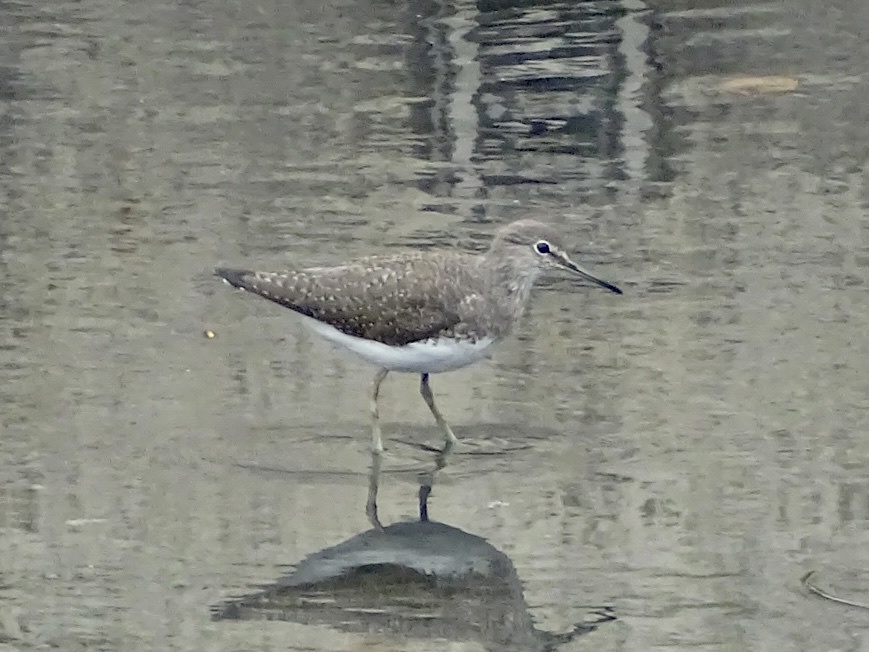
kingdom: Animalia
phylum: Chordata
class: Aves
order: Charadriiformes
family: Scolopacidae
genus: Tringa
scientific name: Tringa ochropus
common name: Green sandpiper
